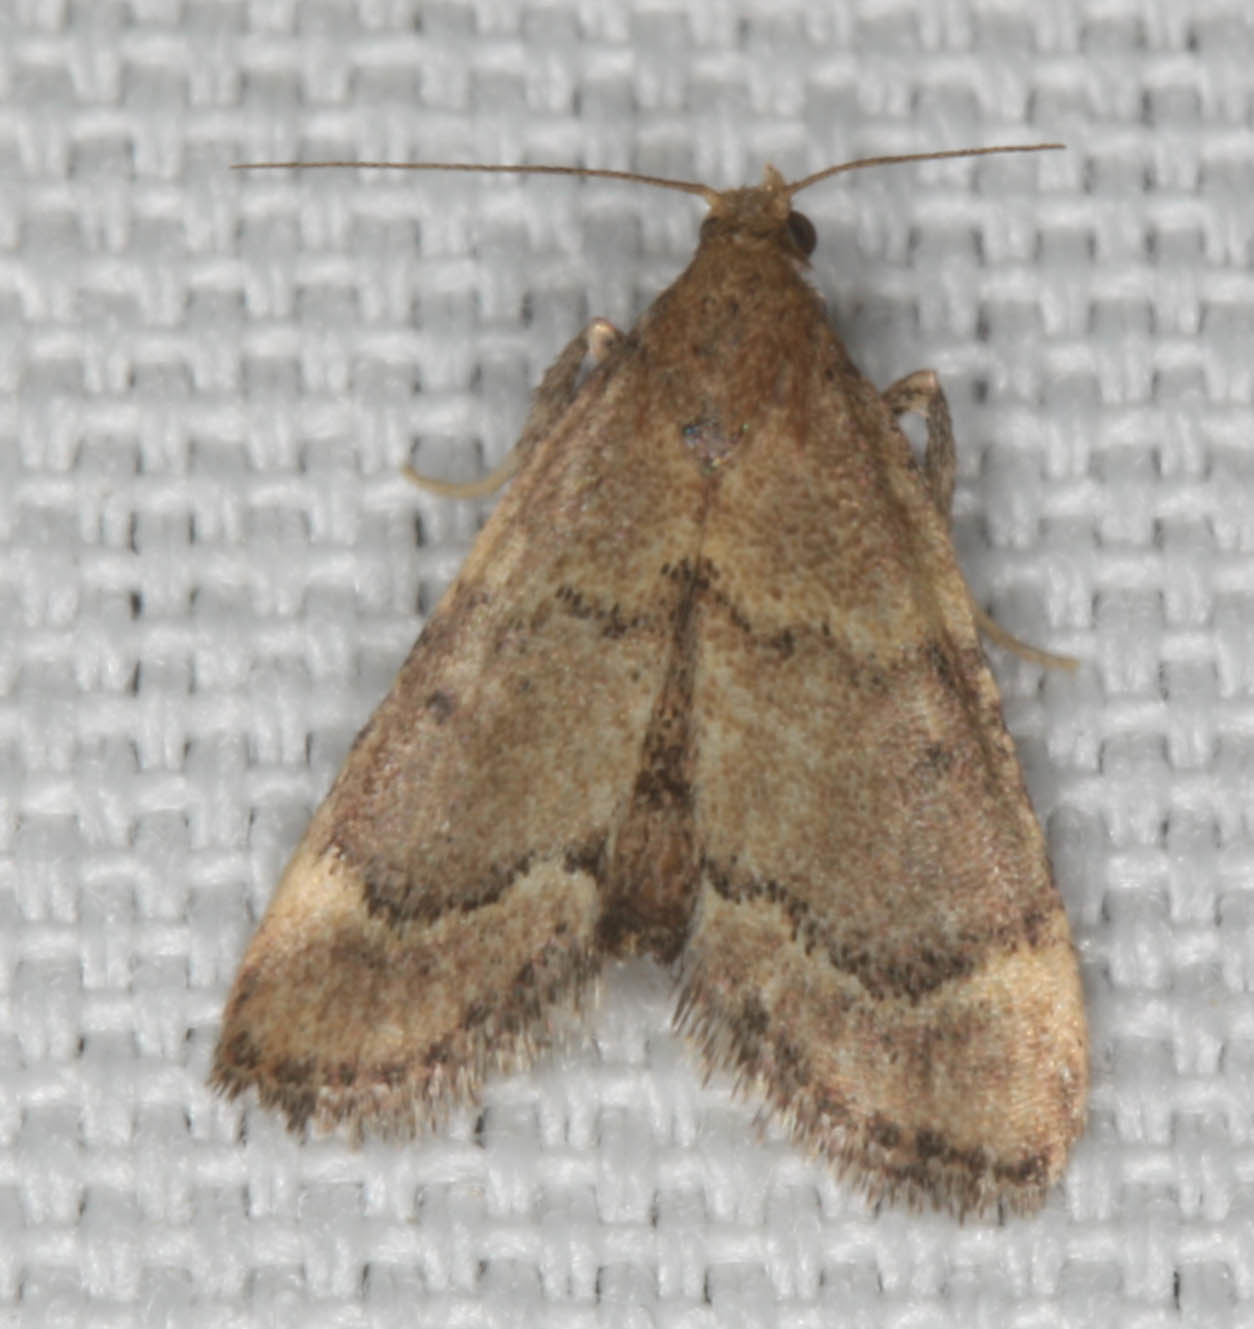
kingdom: Animalia
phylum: Arthropoda
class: Insecta
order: Lepidoptera
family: Pyralidae
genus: Hypsopygia
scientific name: Hypsopygia phoezalis
